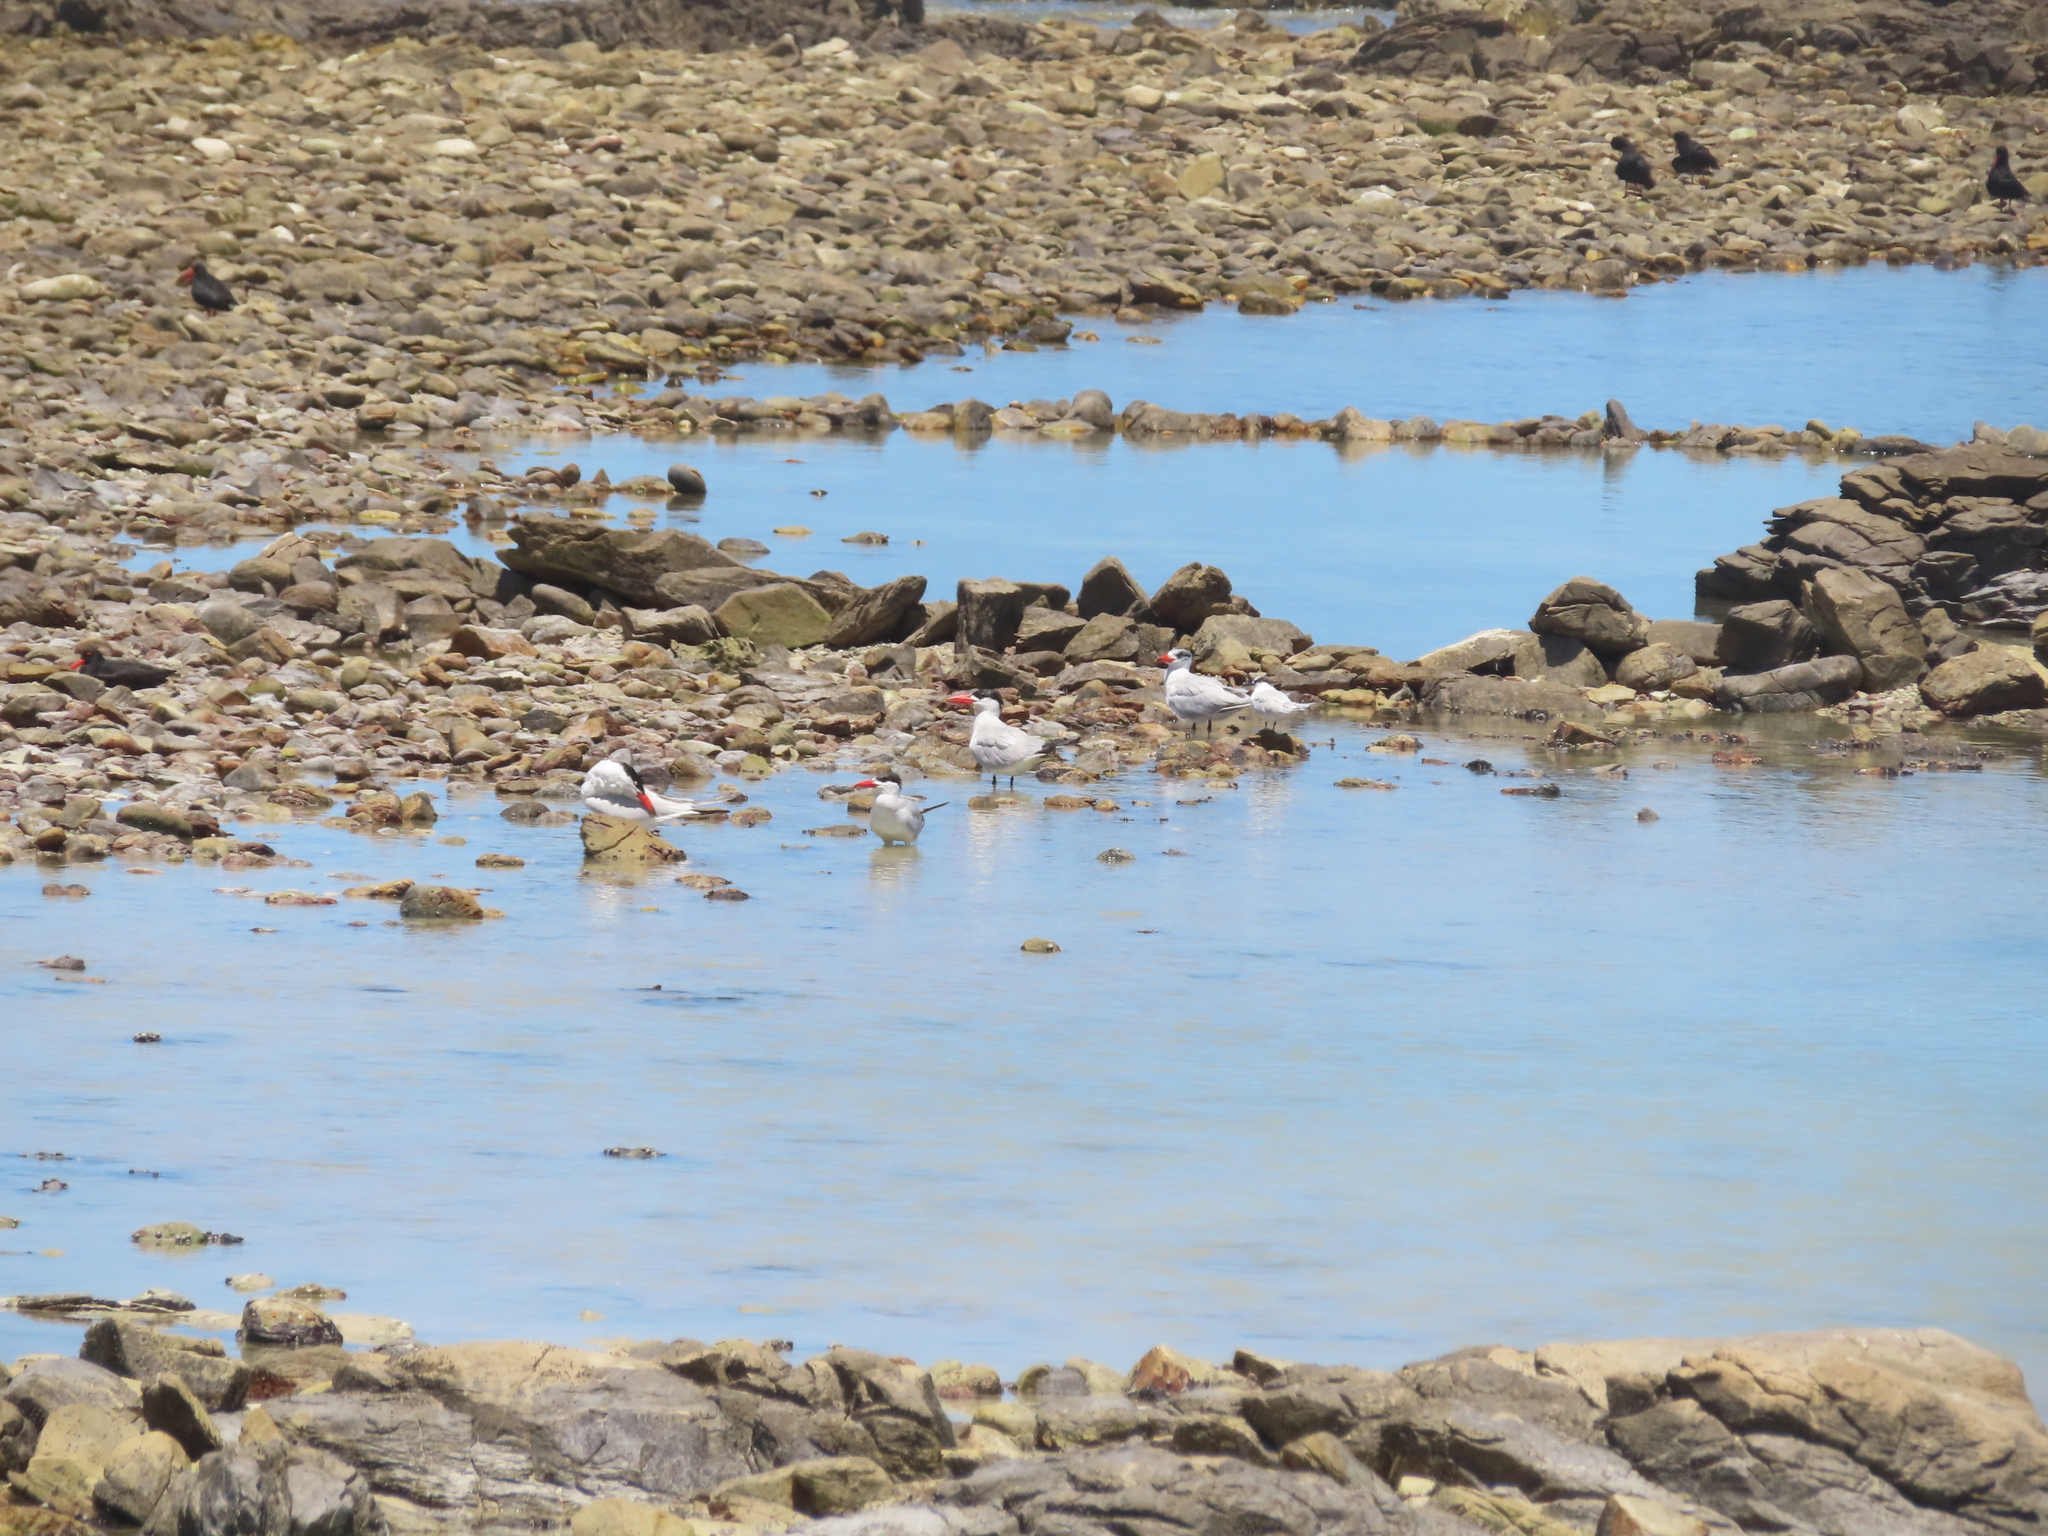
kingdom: Animalia
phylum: Chordata
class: Aves
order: Charadriiformes
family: Laridae
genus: Hydroprogne
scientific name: Hydroprogne caspia
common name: Caspian tern
